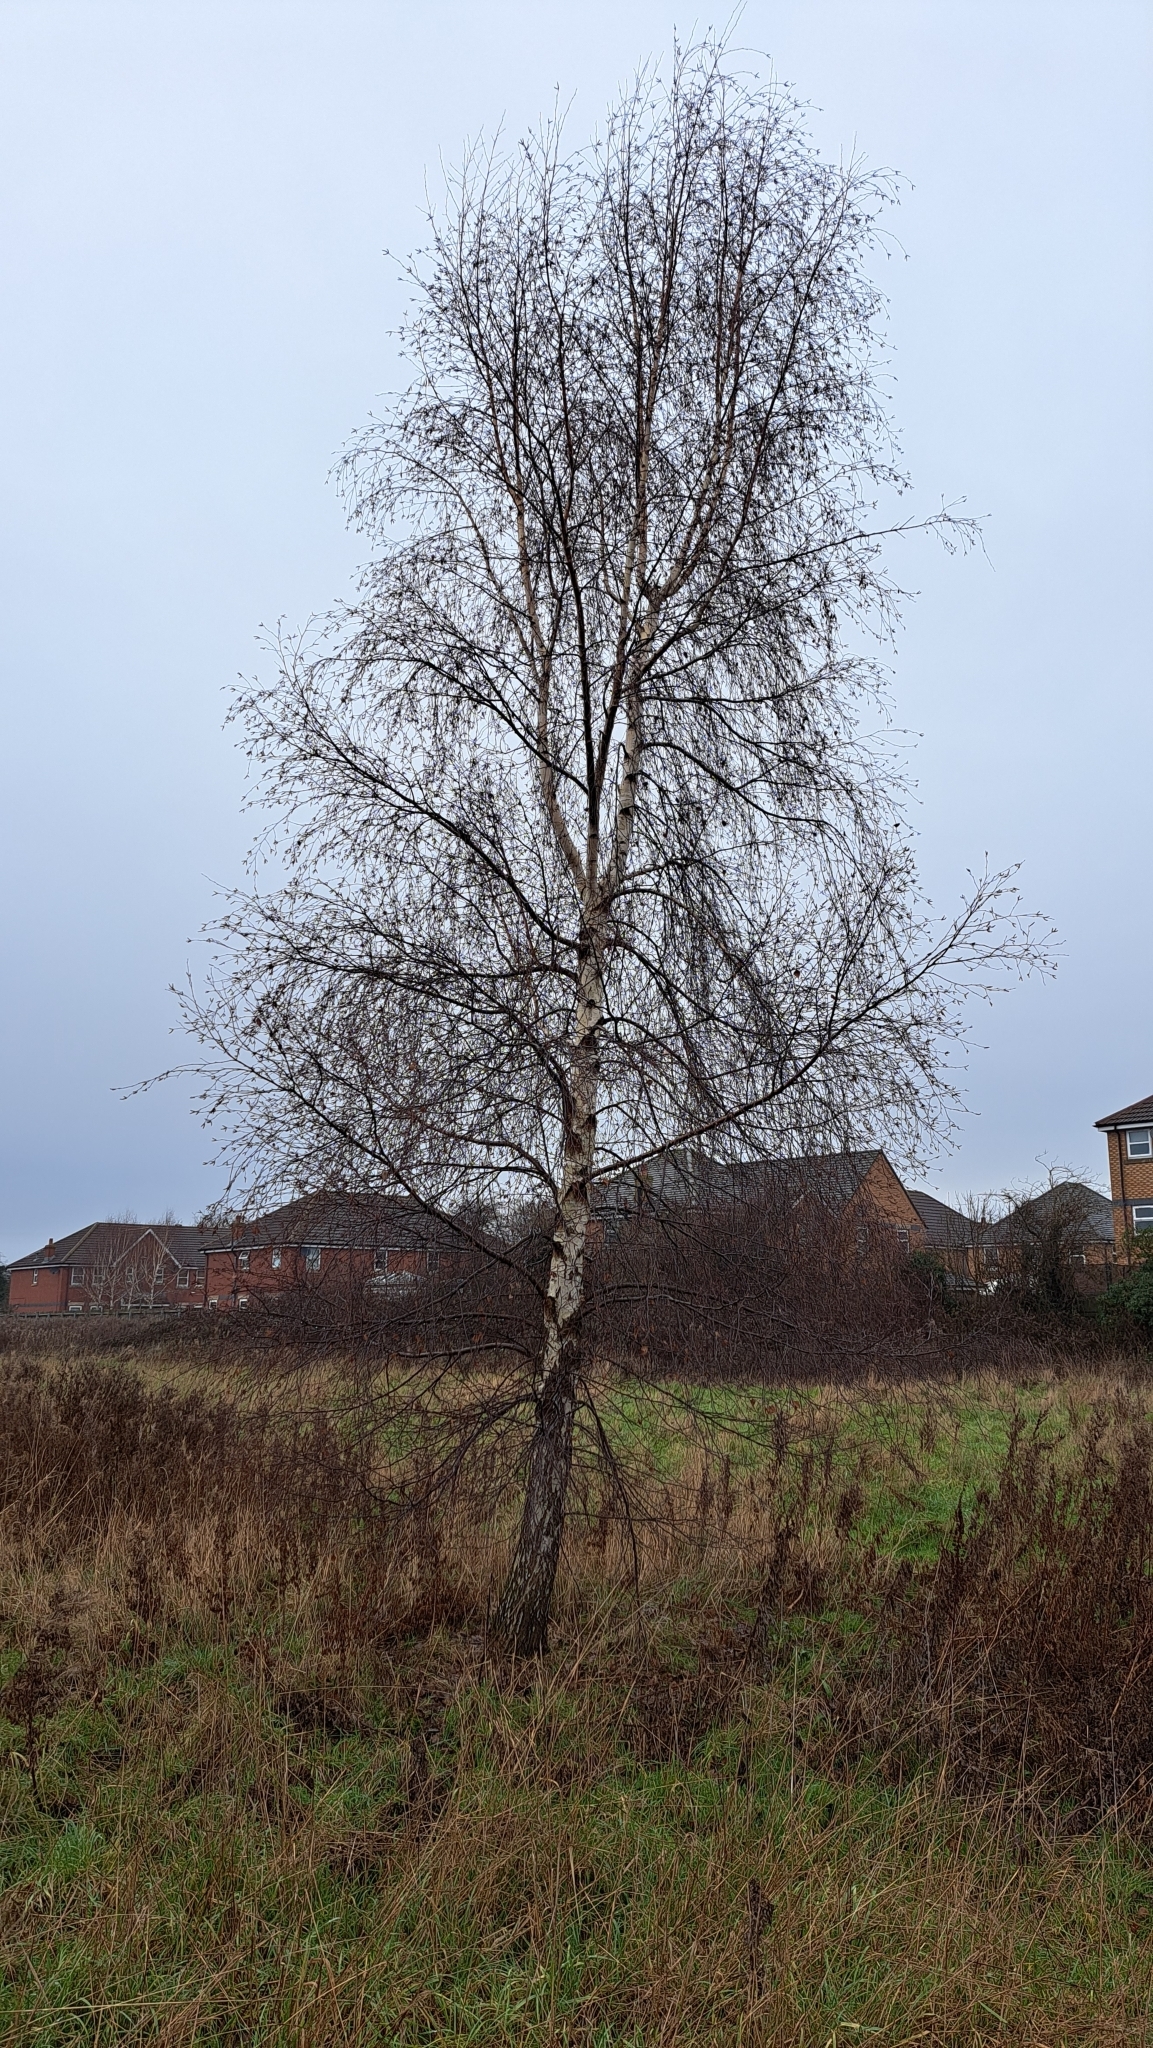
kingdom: Plantae
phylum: Tracheophyta
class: Magnoliopsida
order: Fagales
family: Betulaceae
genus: Betula
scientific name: Betula pendula
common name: Silver birch
